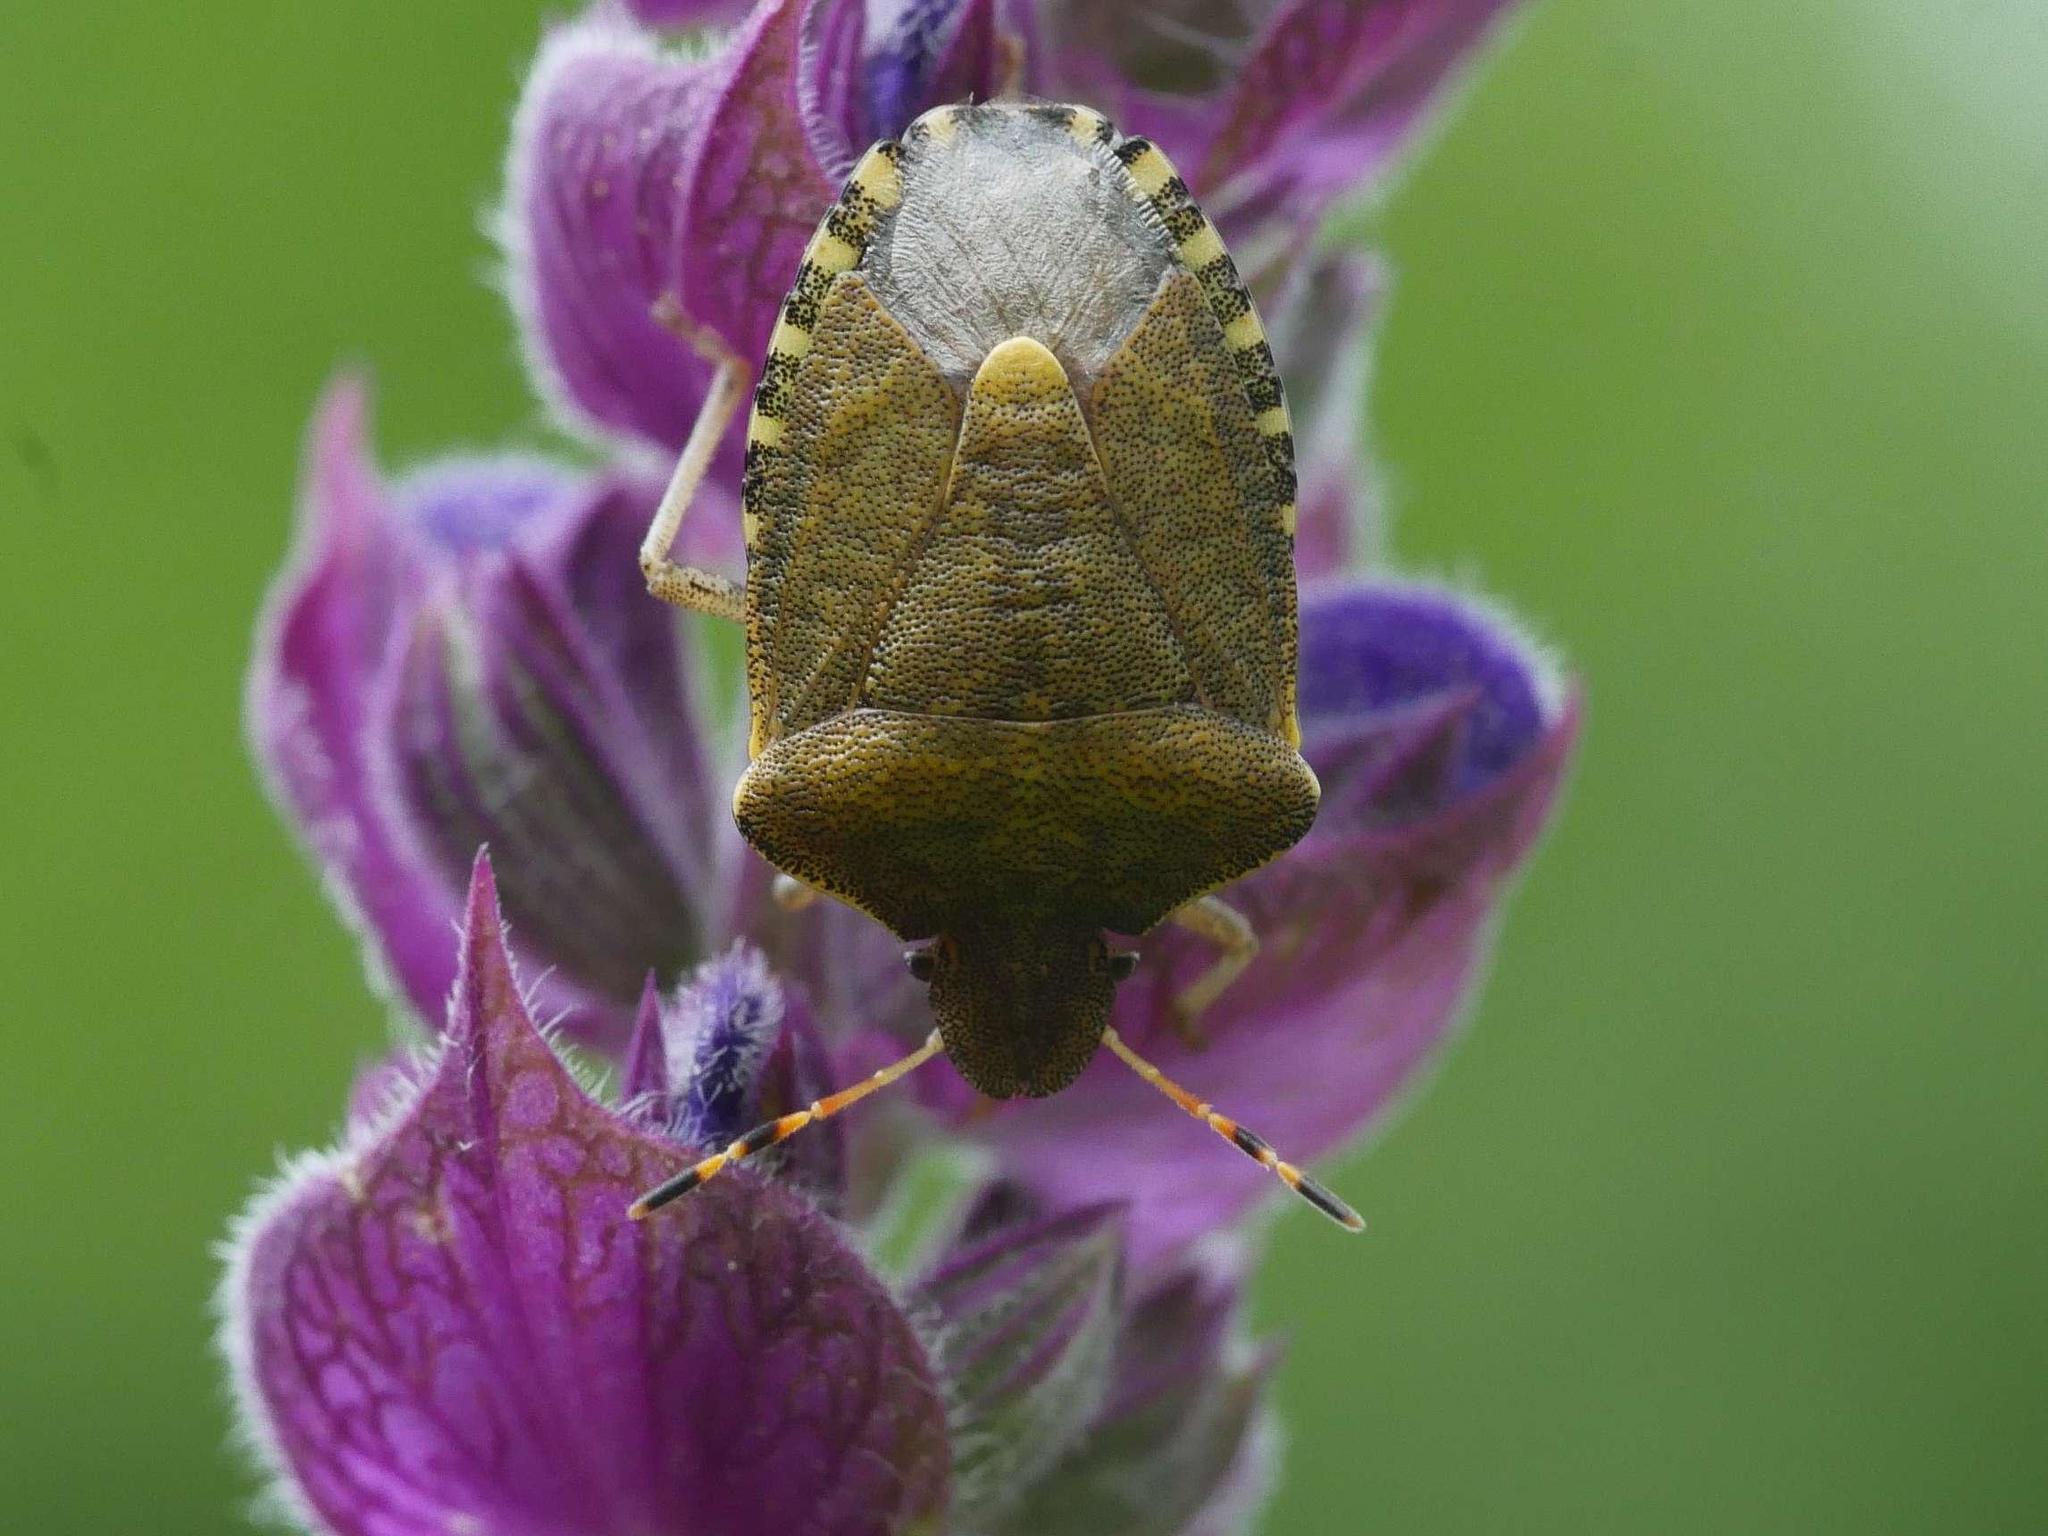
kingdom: Animalia
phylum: Arthropoda
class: Insecta
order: Hemiptera
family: Pentatomidae
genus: Holcostethus
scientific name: Holcostethus strictus
